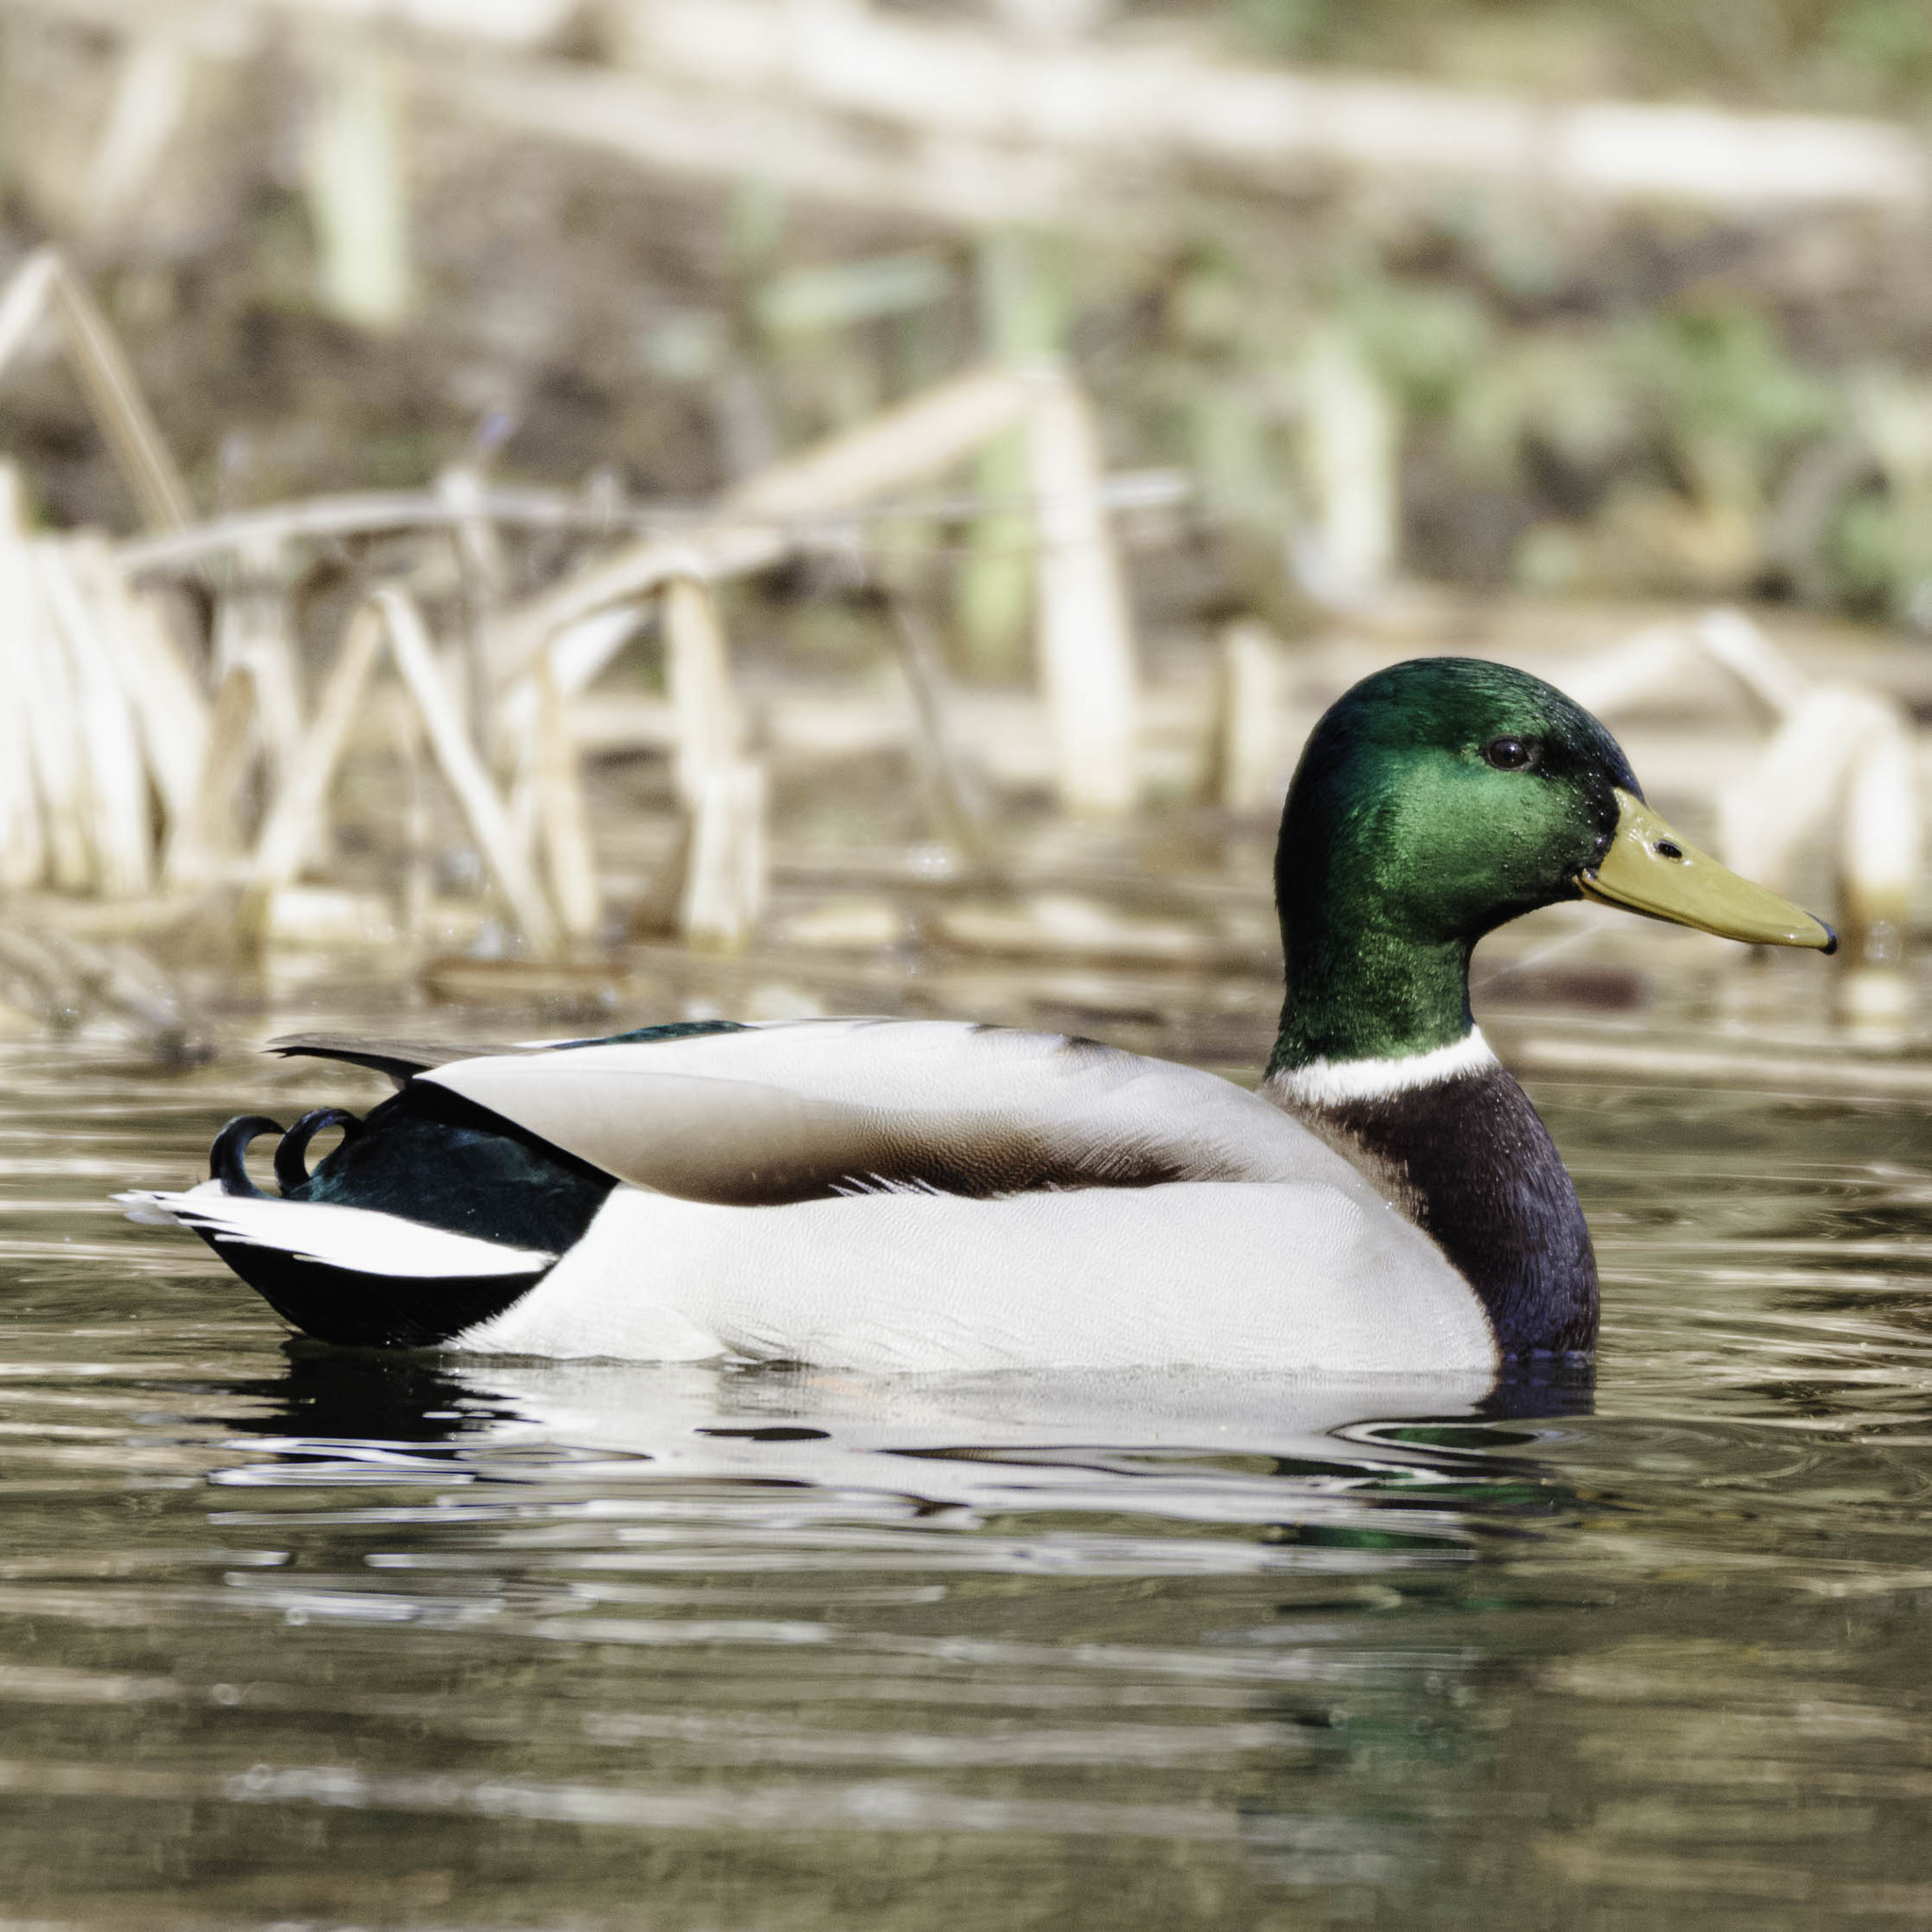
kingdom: Animalia
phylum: Chordata
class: Aves
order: Anseriformes
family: Anatidae
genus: Anas
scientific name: Anas platyrhynchos
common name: Mallard
